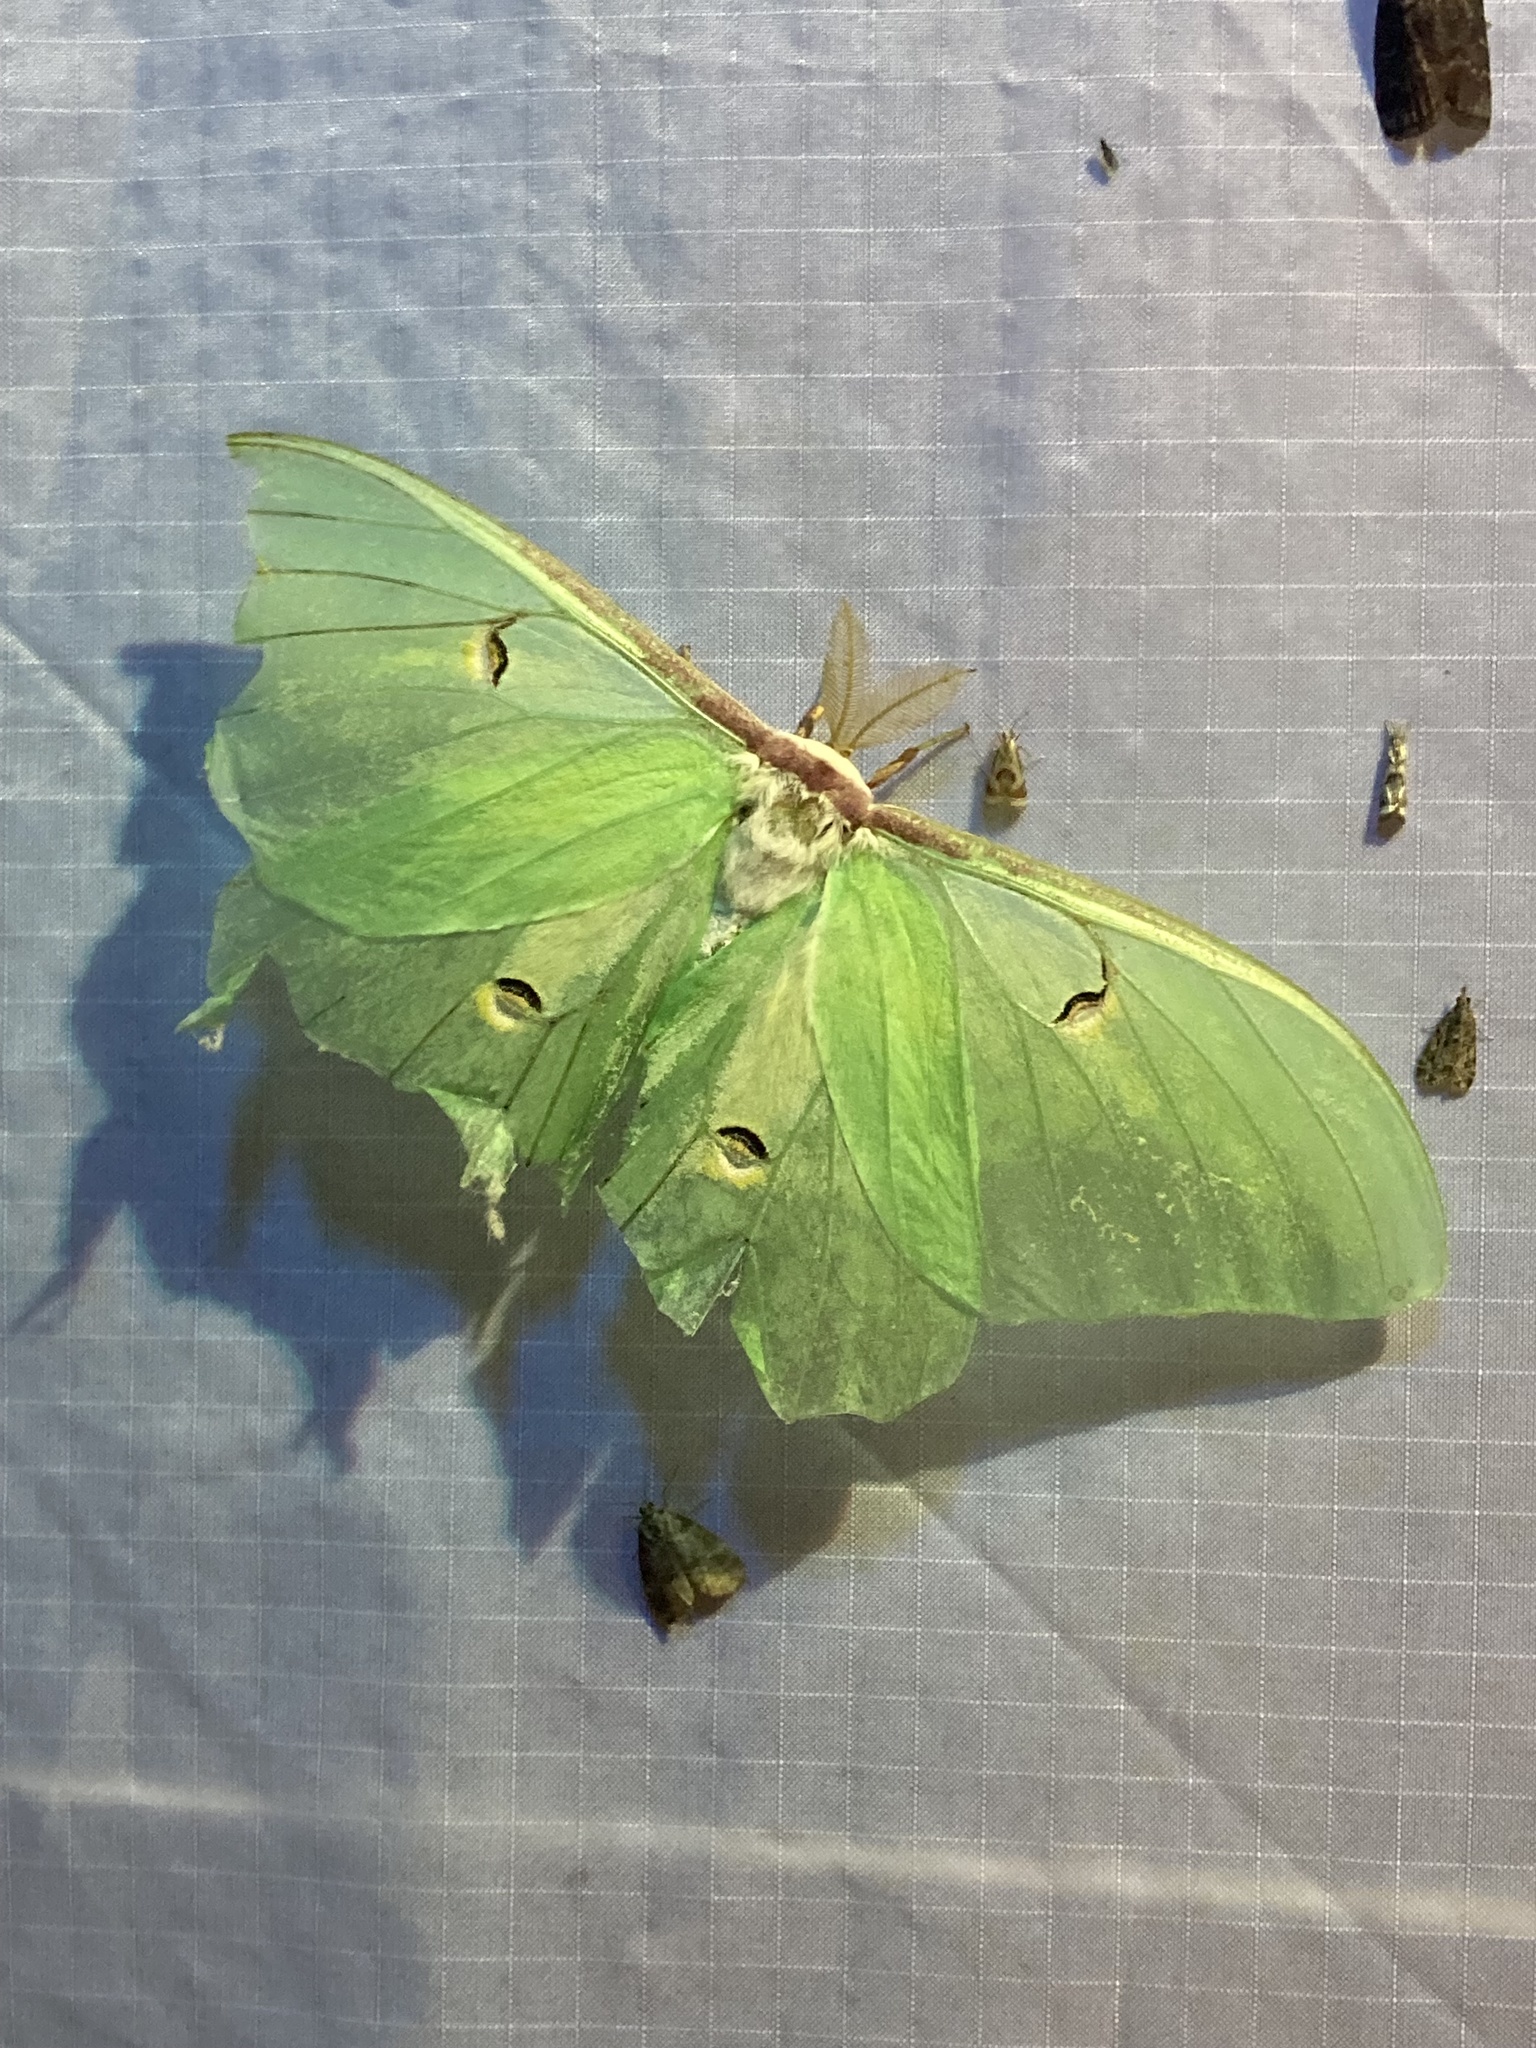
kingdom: Animalia
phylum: Arthropoda
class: Insecta
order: Lepidoptera
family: Saturniidae
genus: Actias
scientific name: Actias luna
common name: Luna moth
